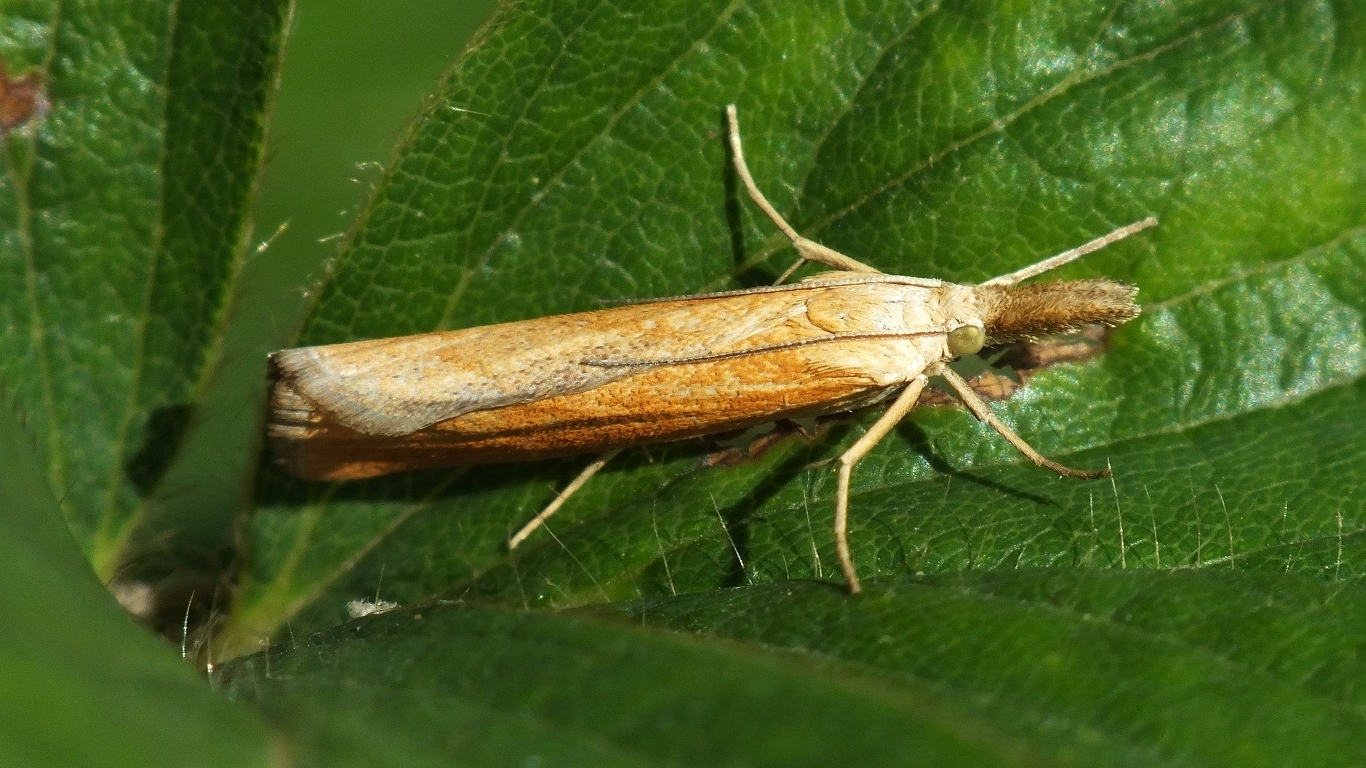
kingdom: Animalia
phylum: Arthropoda
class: Insecta
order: Lepidoptera
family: Crambidae
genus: Pediasia
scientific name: Pediasia luteella
